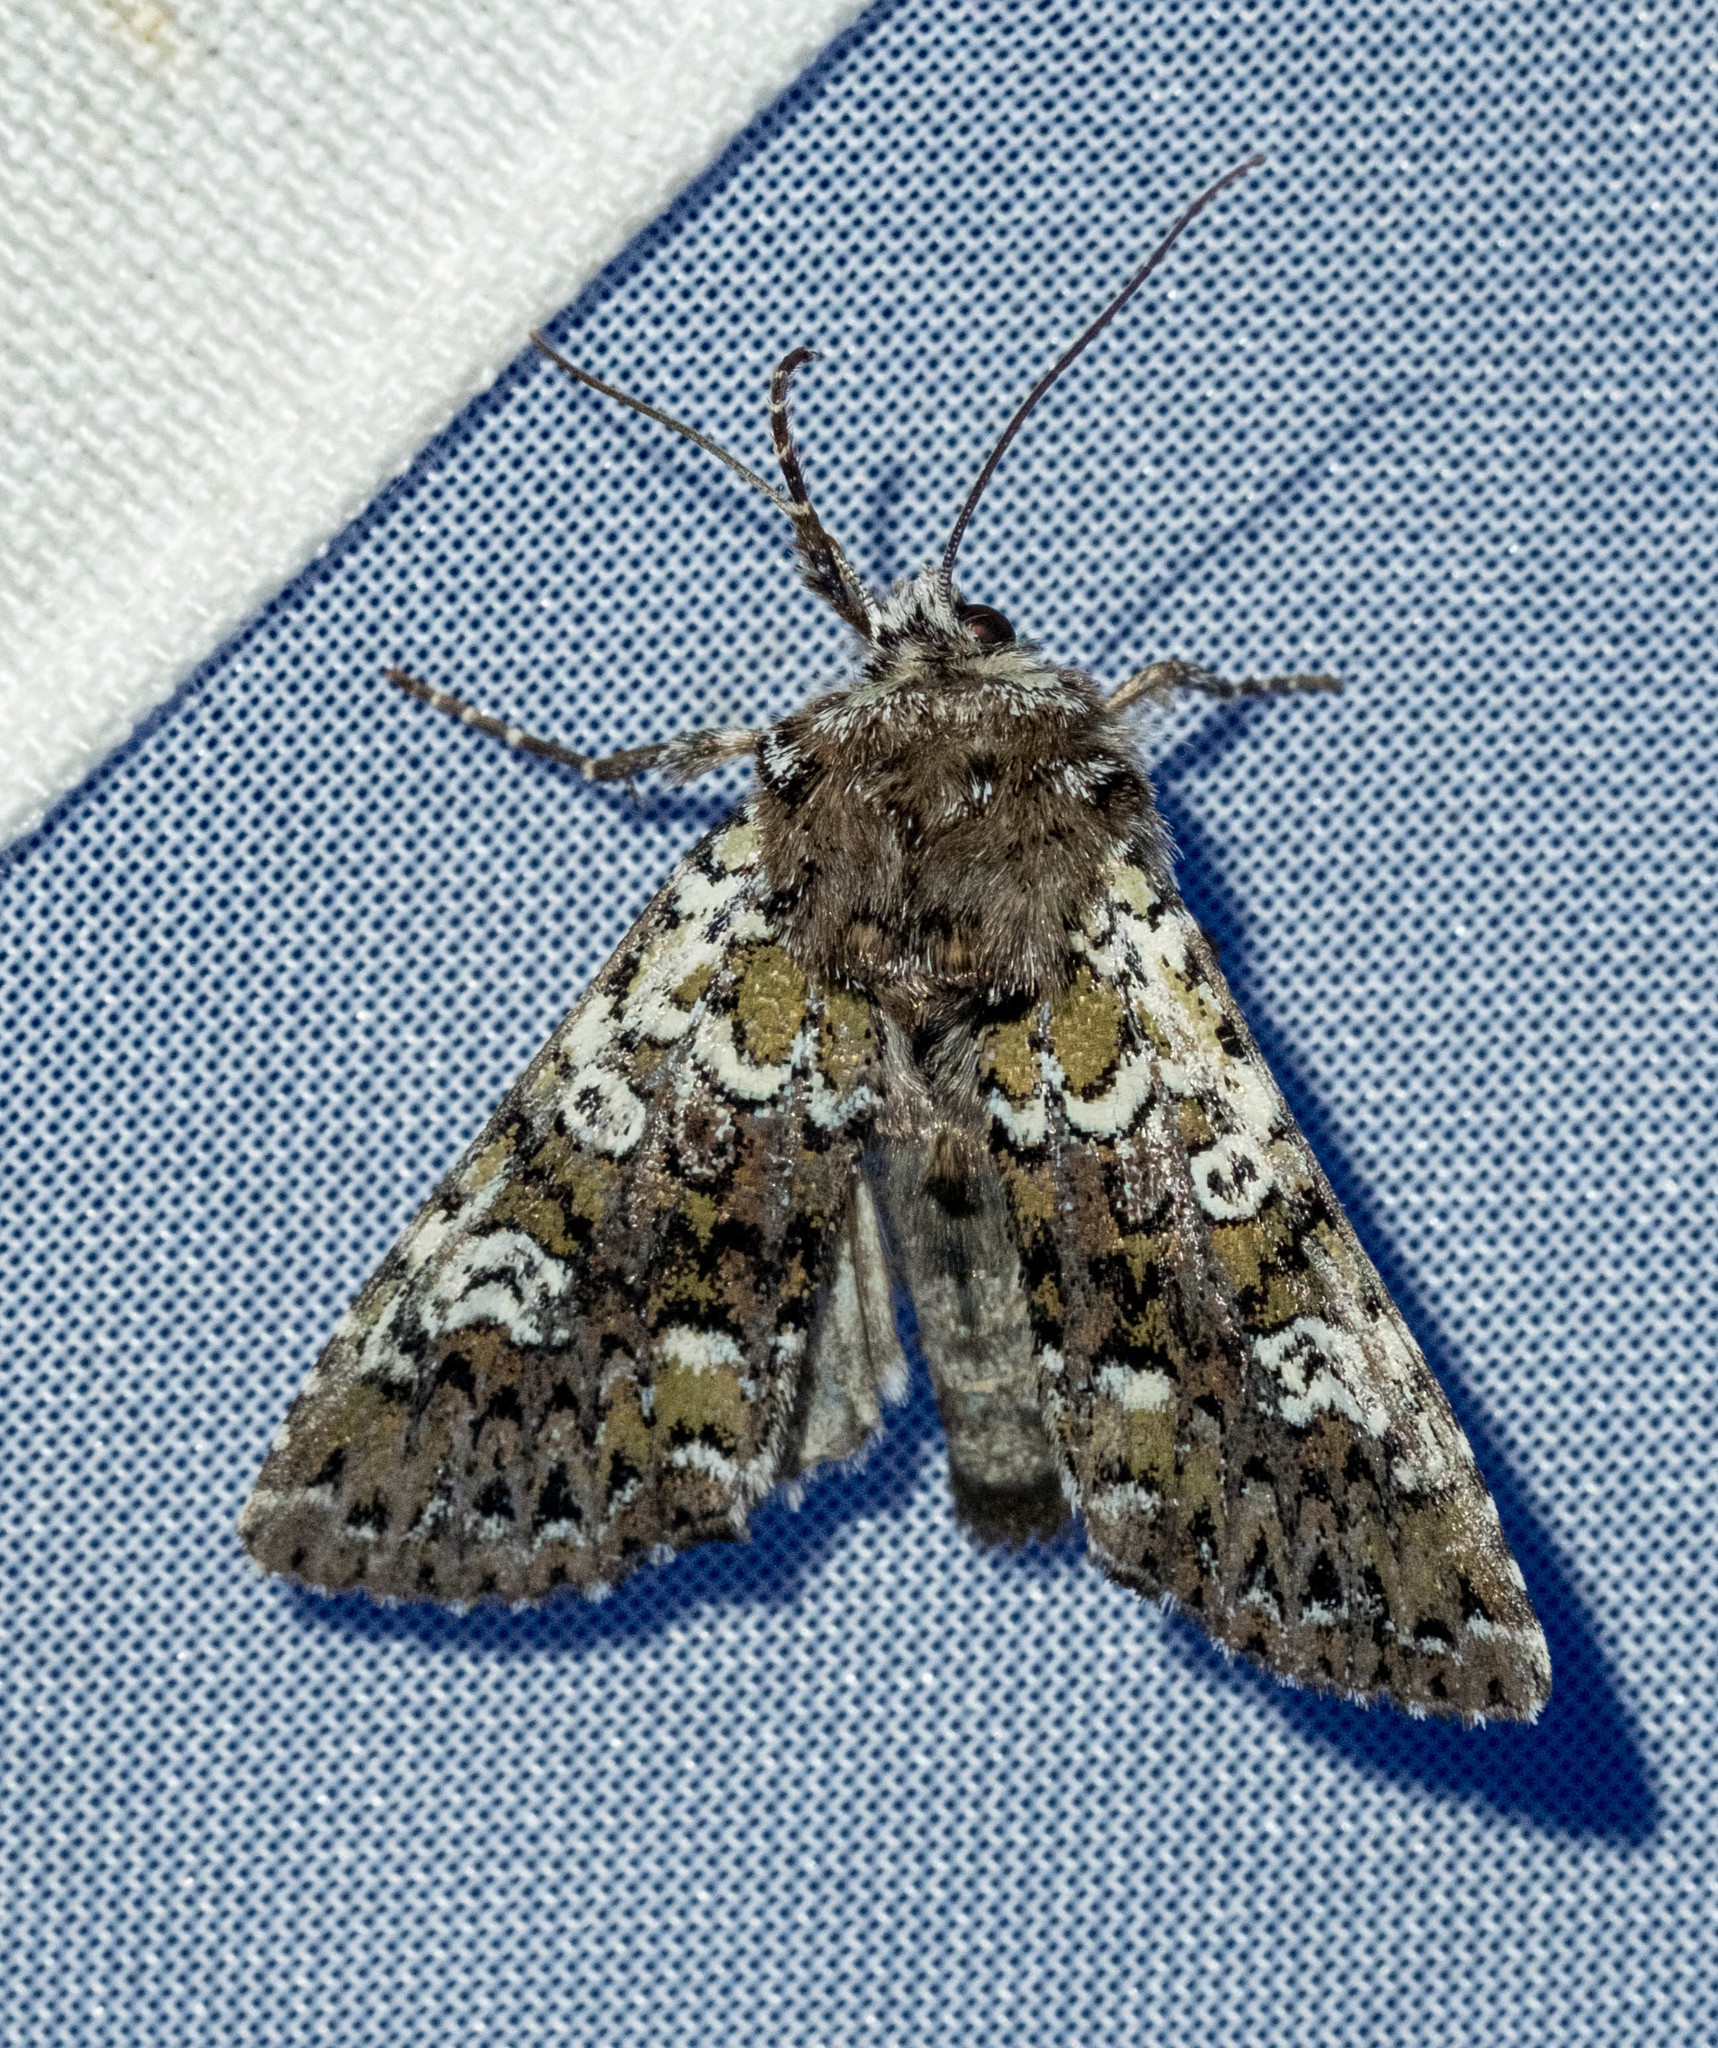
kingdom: Animalia
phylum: Arthropoda
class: Insecta
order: Lepidoptera
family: Noctuidae
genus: Crypsedra
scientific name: Crypsedra gemmea
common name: Cameo
